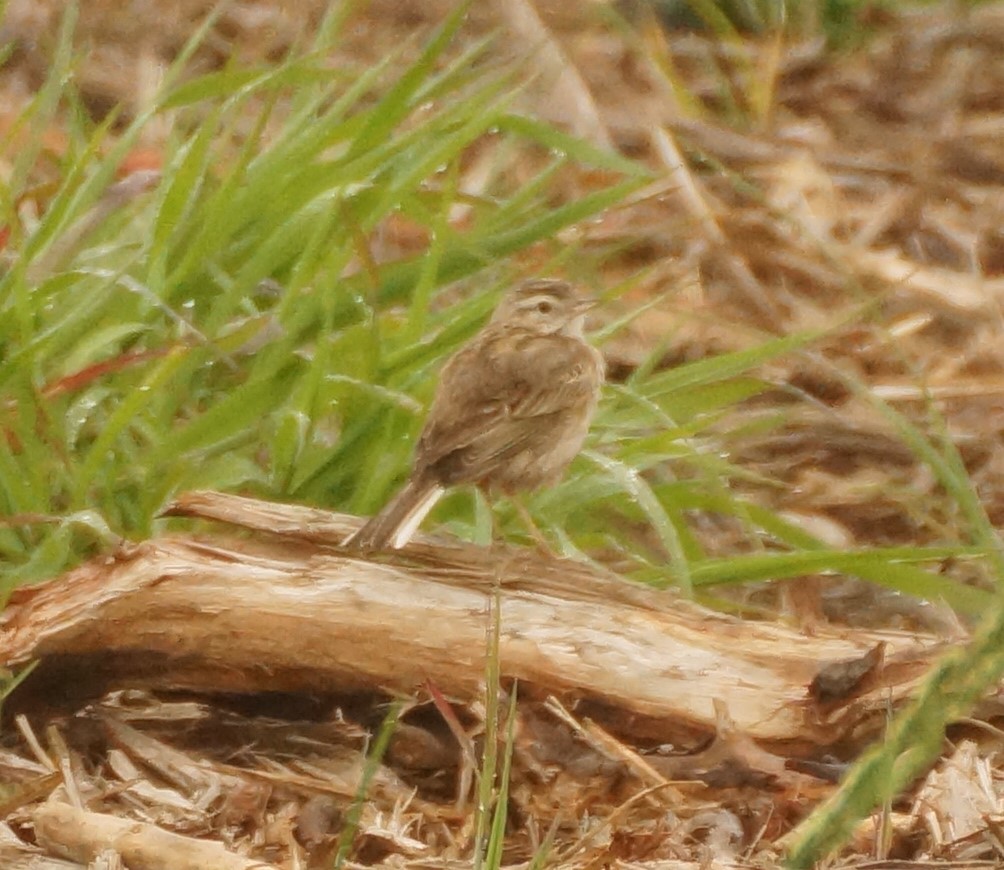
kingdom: Animalia
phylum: Chordata
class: Aves
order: Passeriformes
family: Motacillidae
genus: Anthus
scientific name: Anthus australis
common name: Australian pipit
